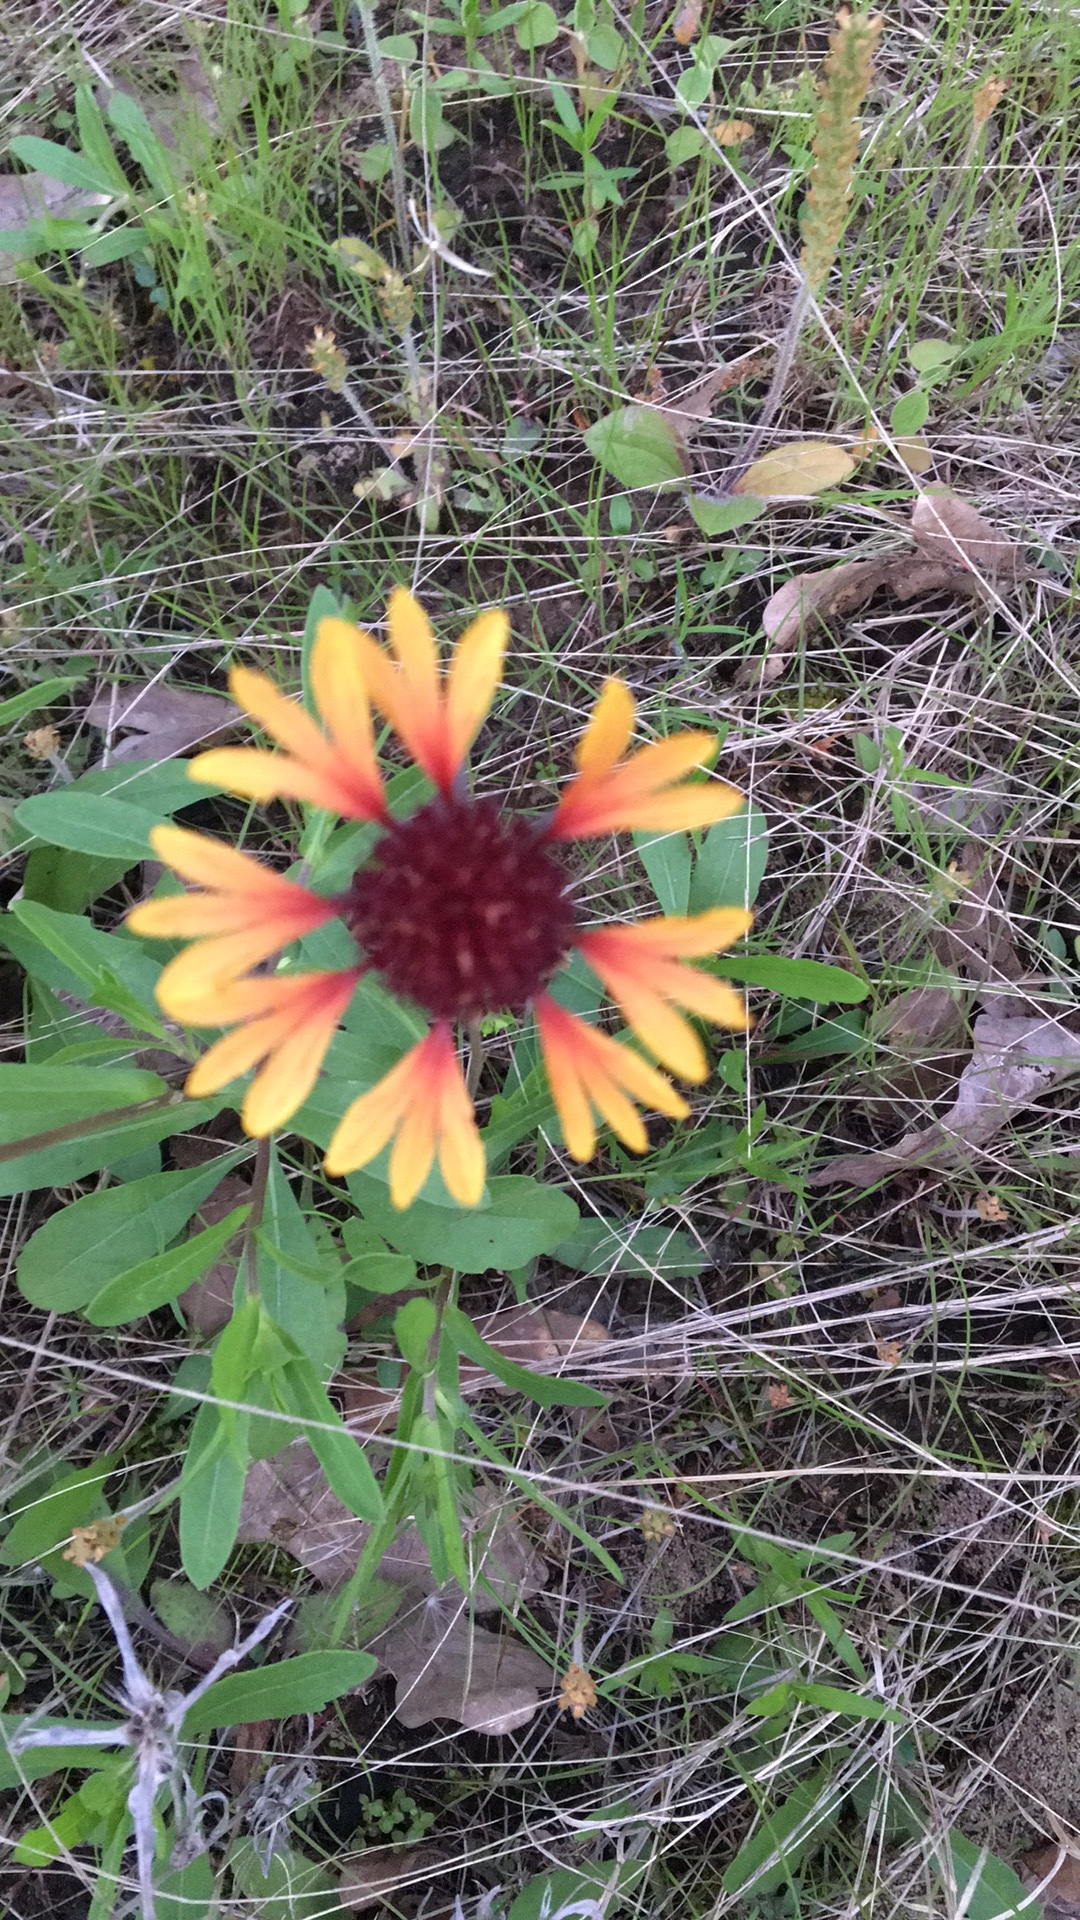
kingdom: Plantae
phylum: Tracheophyta
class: Magnoliopsida
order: Asterales
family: Asteraceae
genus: Gaillardia
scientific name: Gaillardia aestivalis
